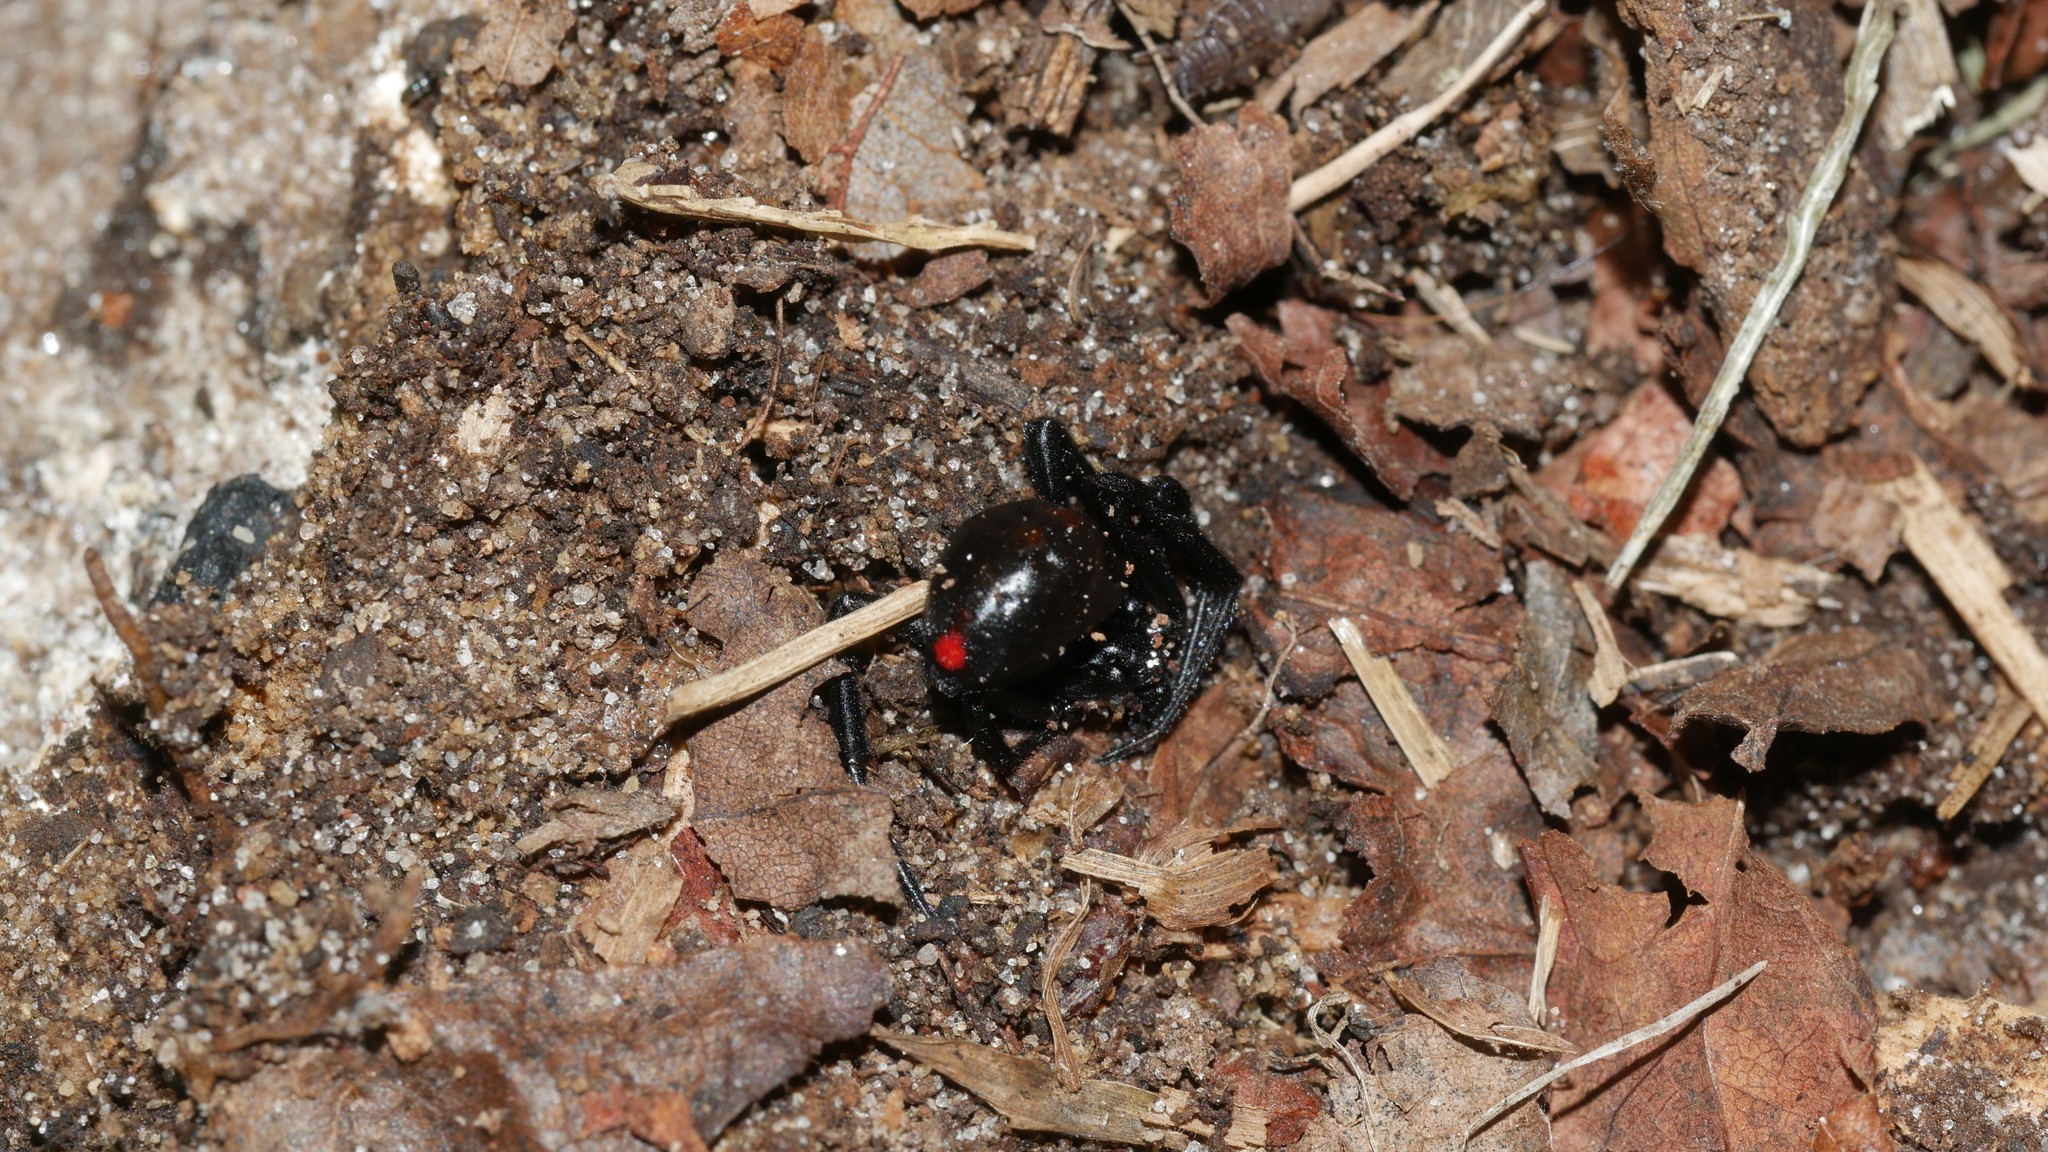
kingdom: Animalia
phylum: Arthropoda
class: Arachnida
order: Araneae
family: Theridiidae
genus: Latrodectus
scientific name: Latrodectus mactans
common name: Cobweb spiders
